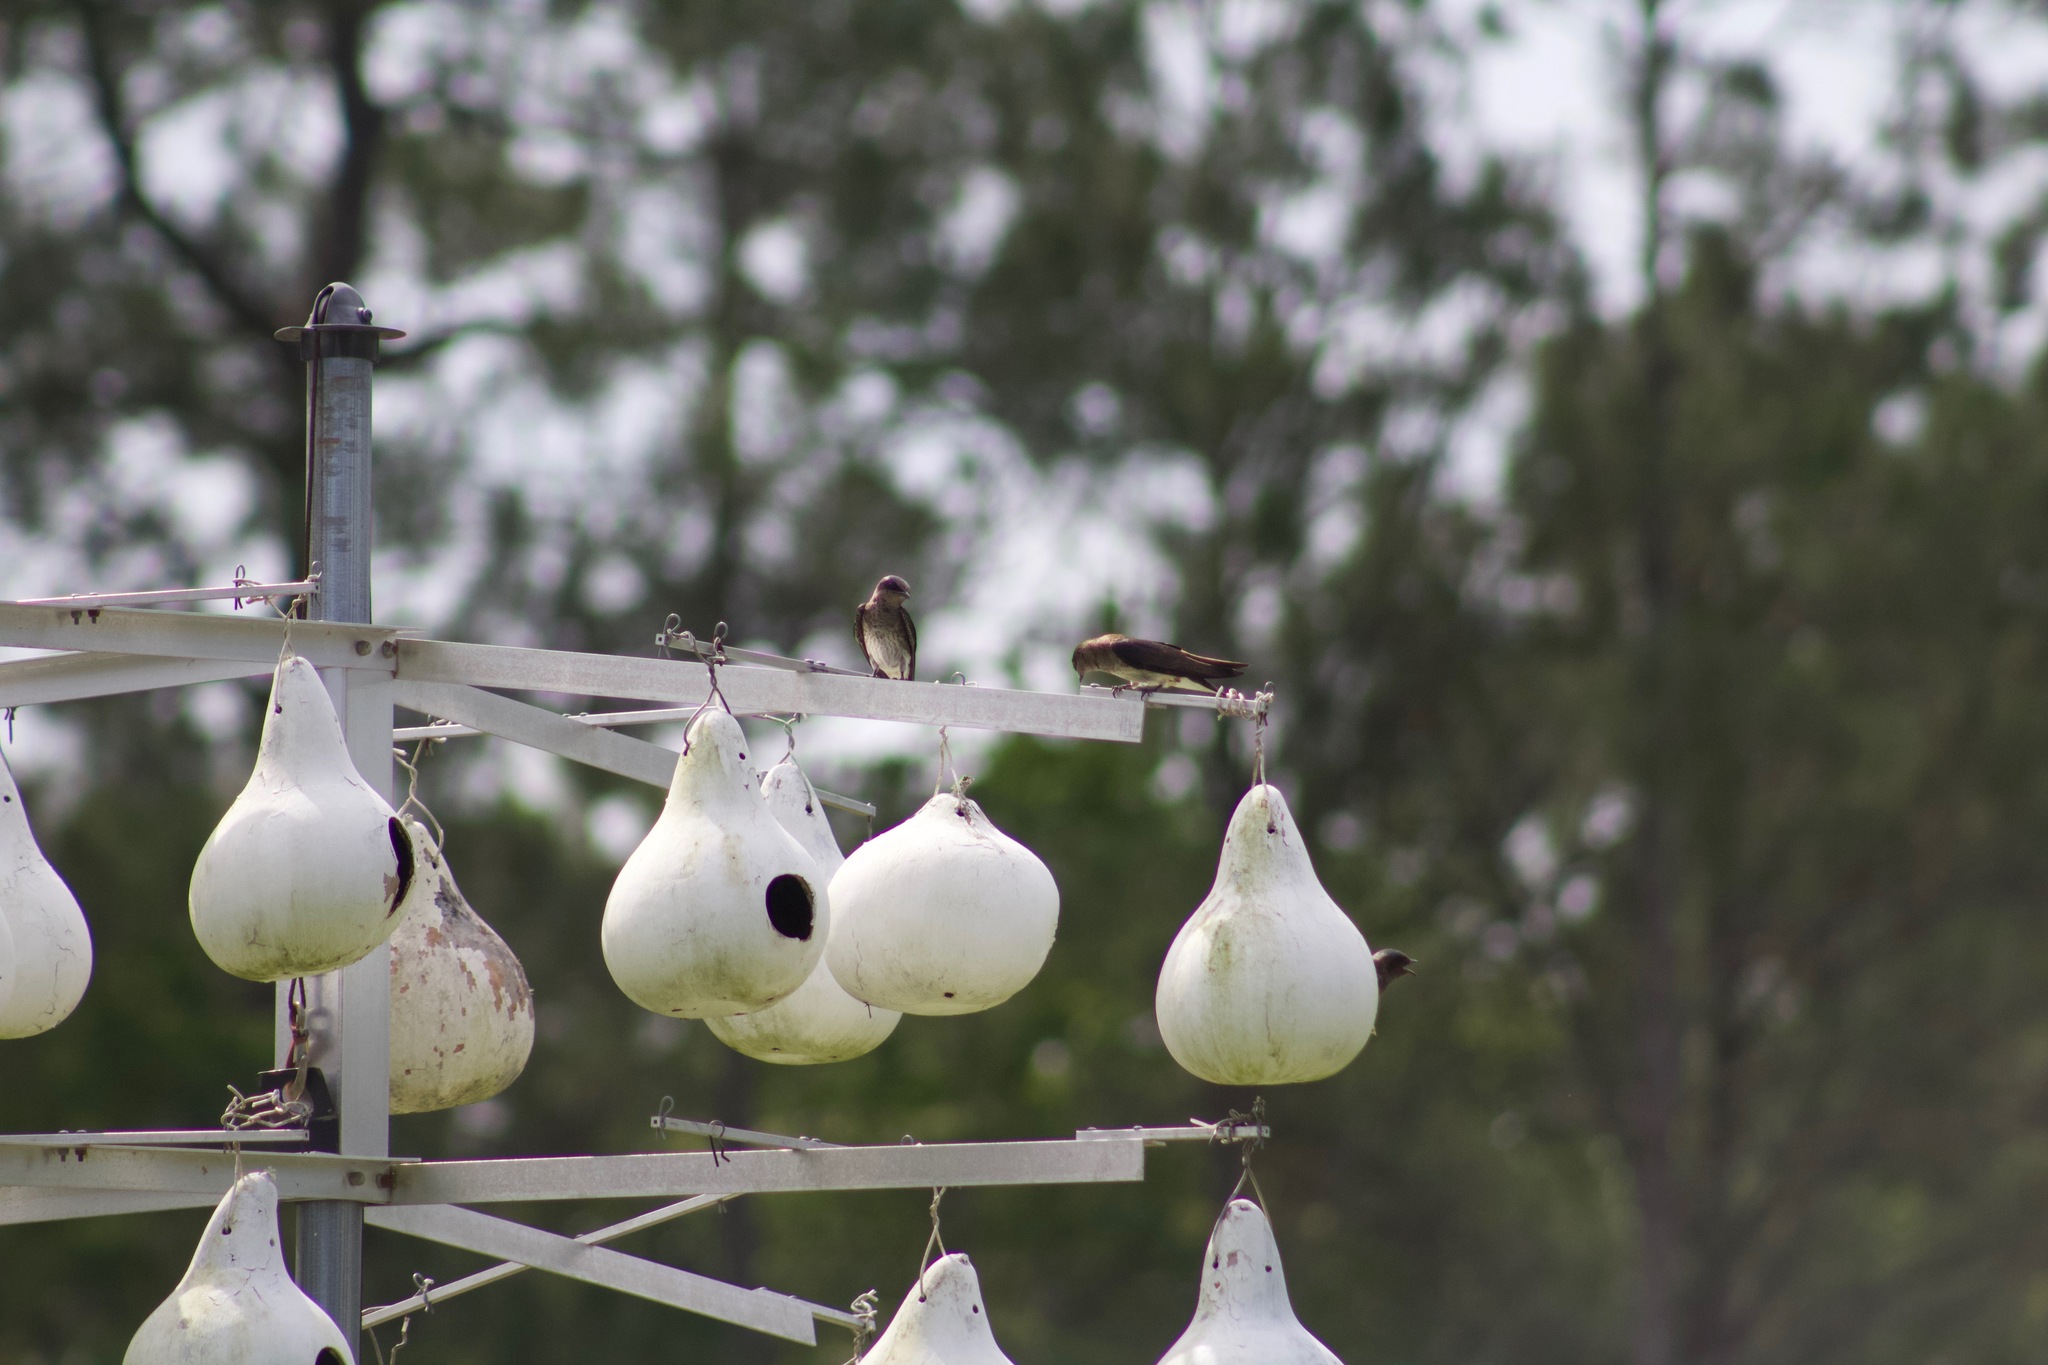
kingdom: Animalia
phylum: Chordata
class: Aves
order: Passeriformes
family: Hirundinidae
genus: Progne
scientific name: Progne subis
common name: Purple martin
